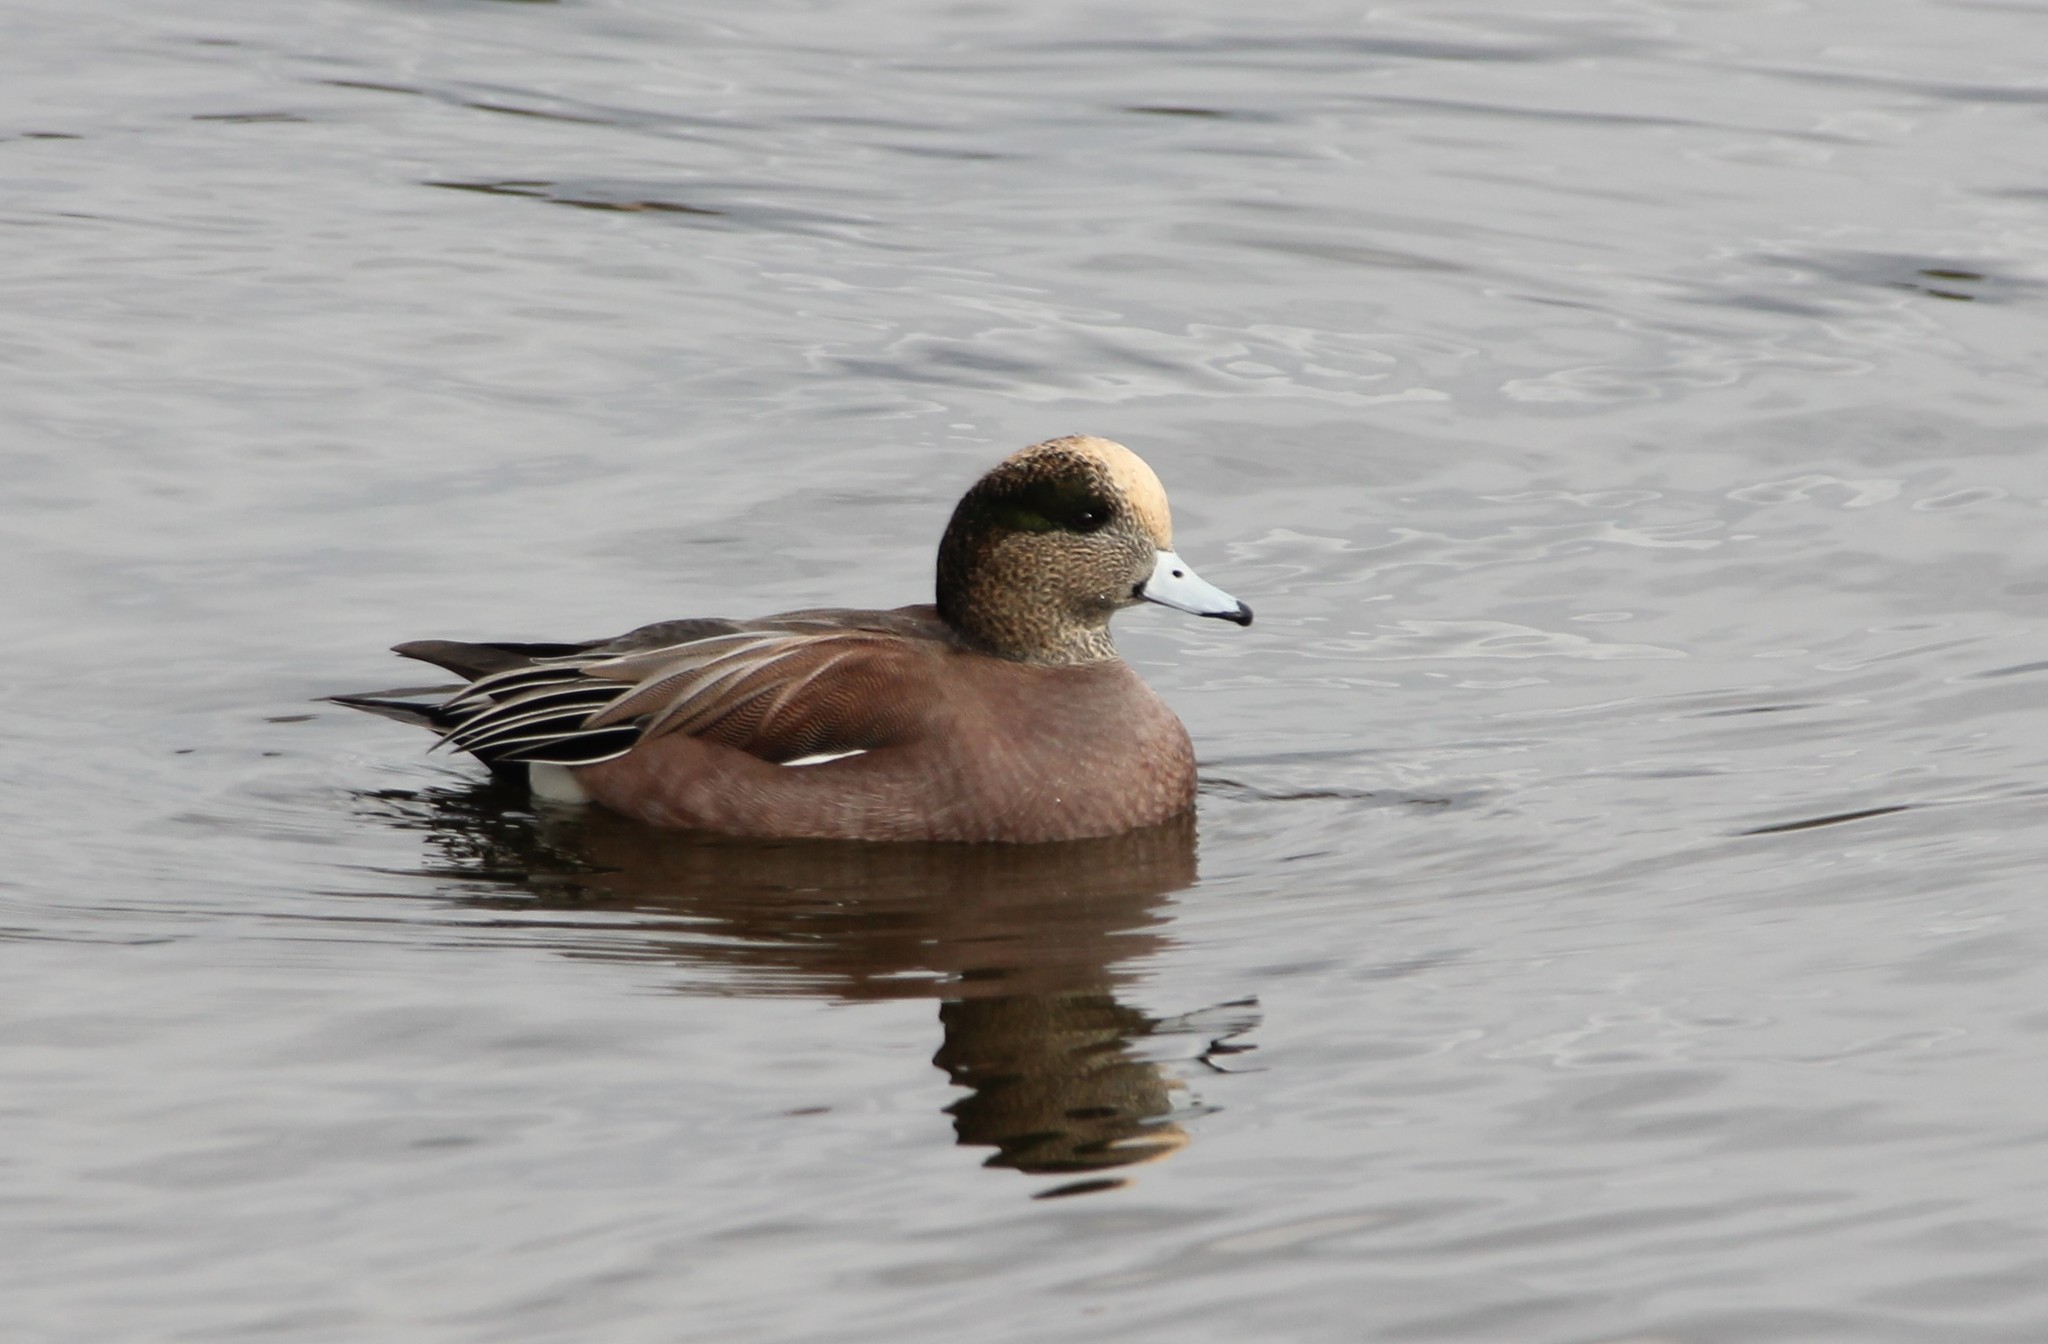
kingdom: Animalia
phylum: Chordata
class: Aves
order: Anseriformes
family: Anatidae
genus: Mareca
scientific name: Mareca americana
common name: American wigeon
